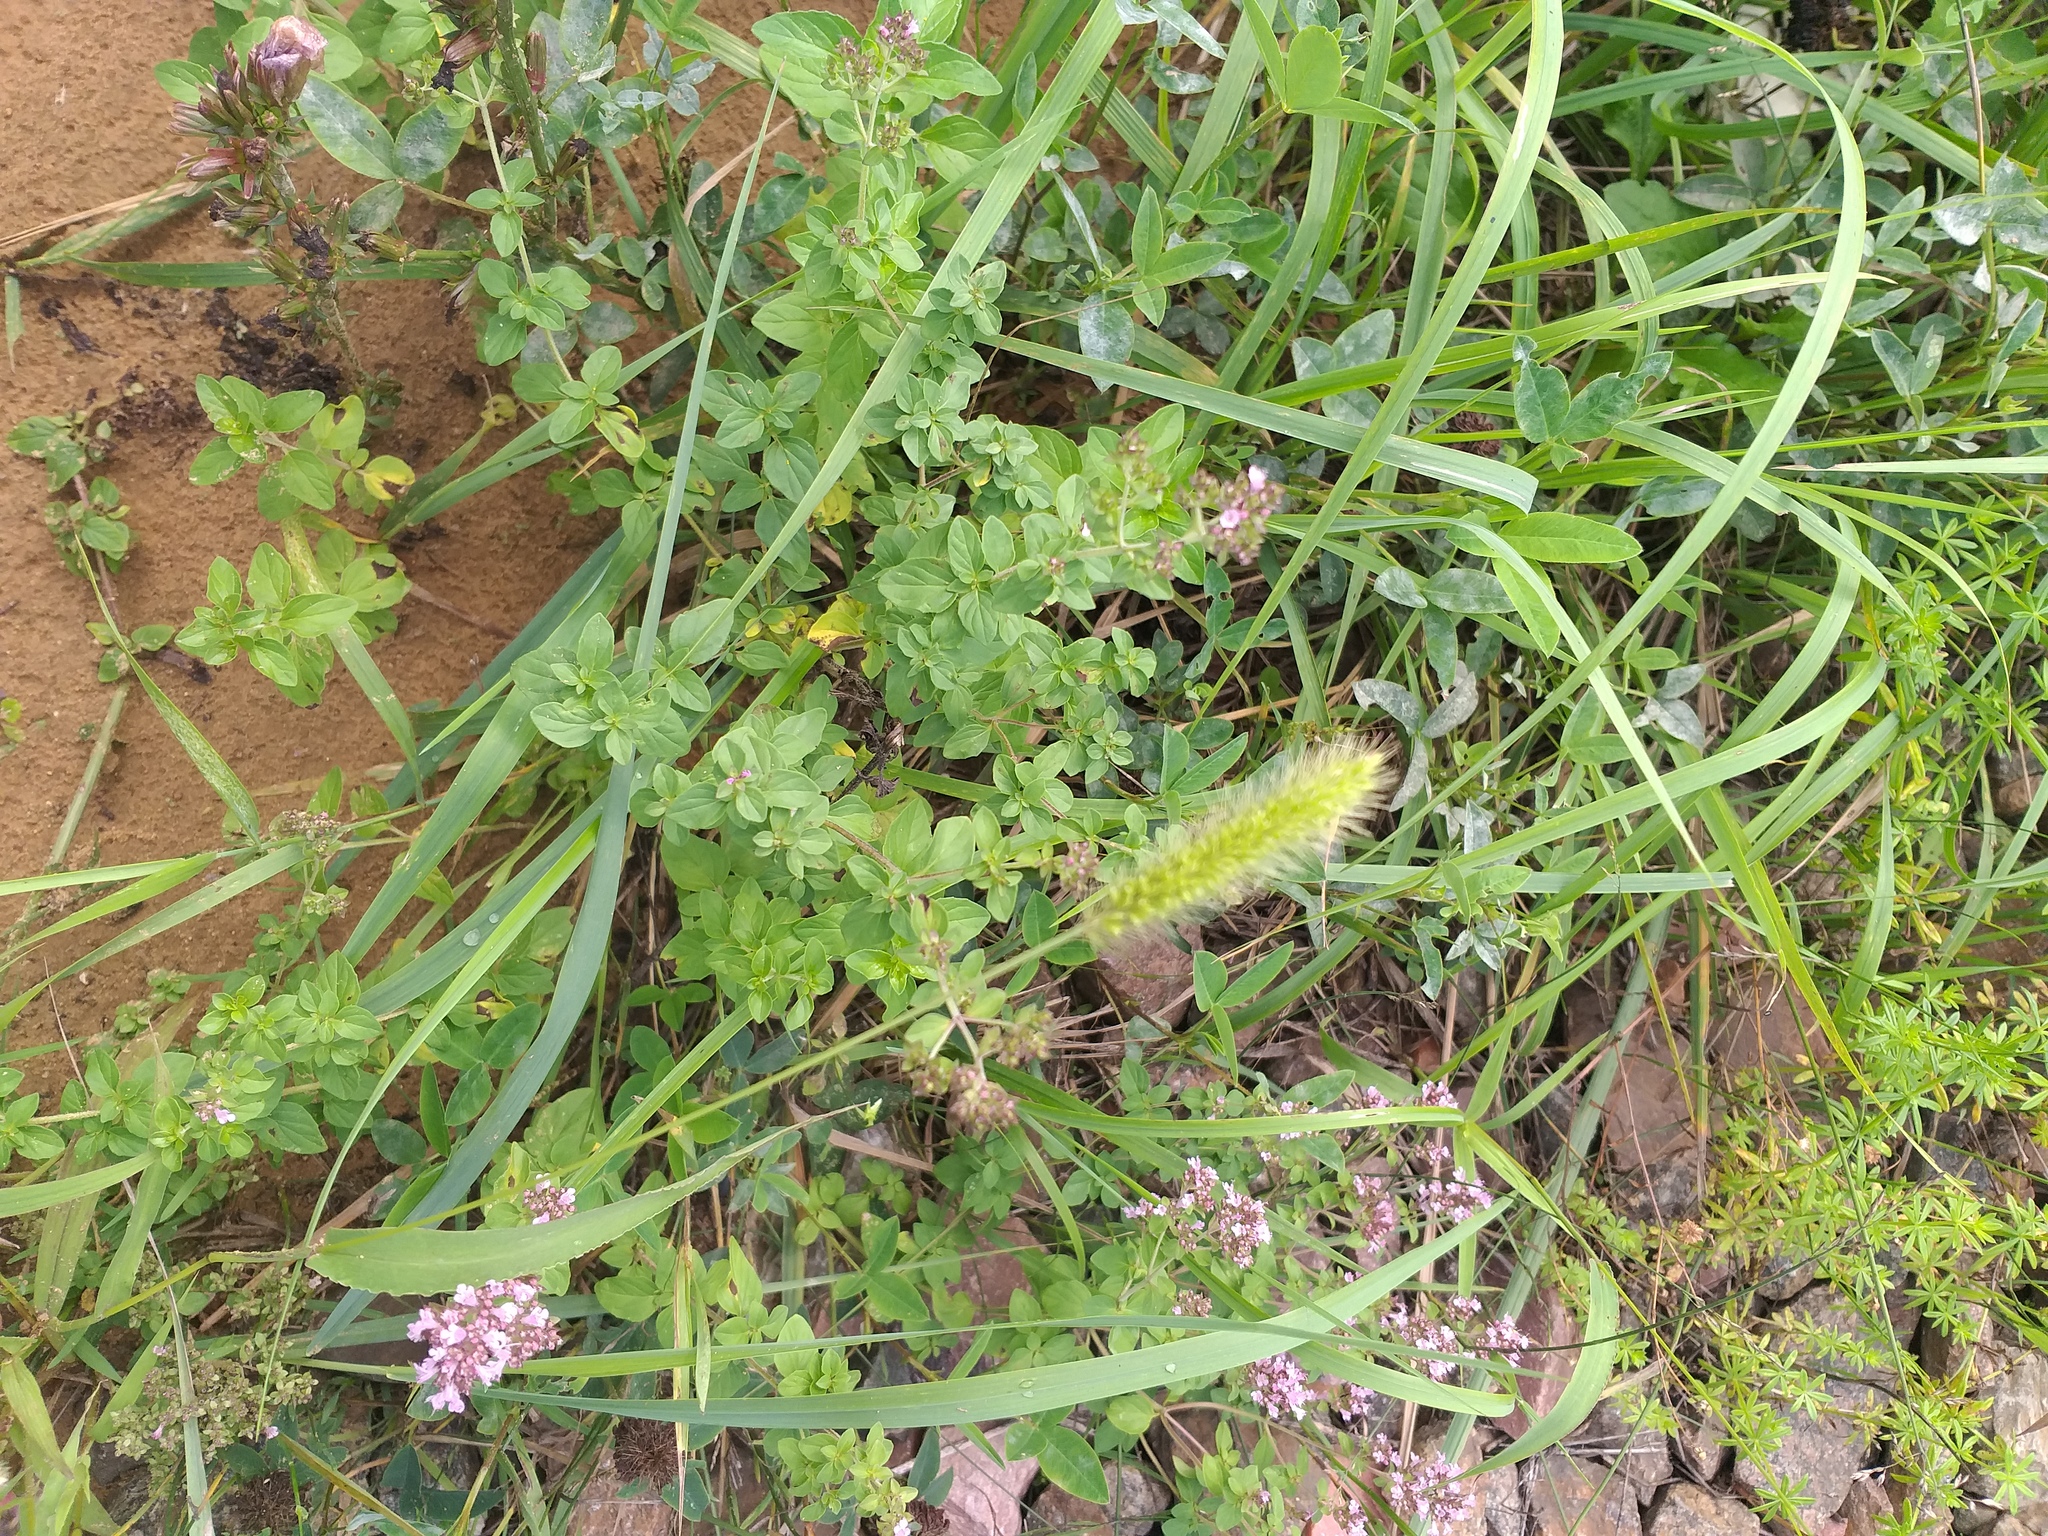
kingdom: Plantae
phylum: Tracheophyta
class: Magnoliopsida
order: Lamiales
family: Lamiaceae
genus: Origanum
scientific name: Origanum vulgare
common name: Wild marjoram
